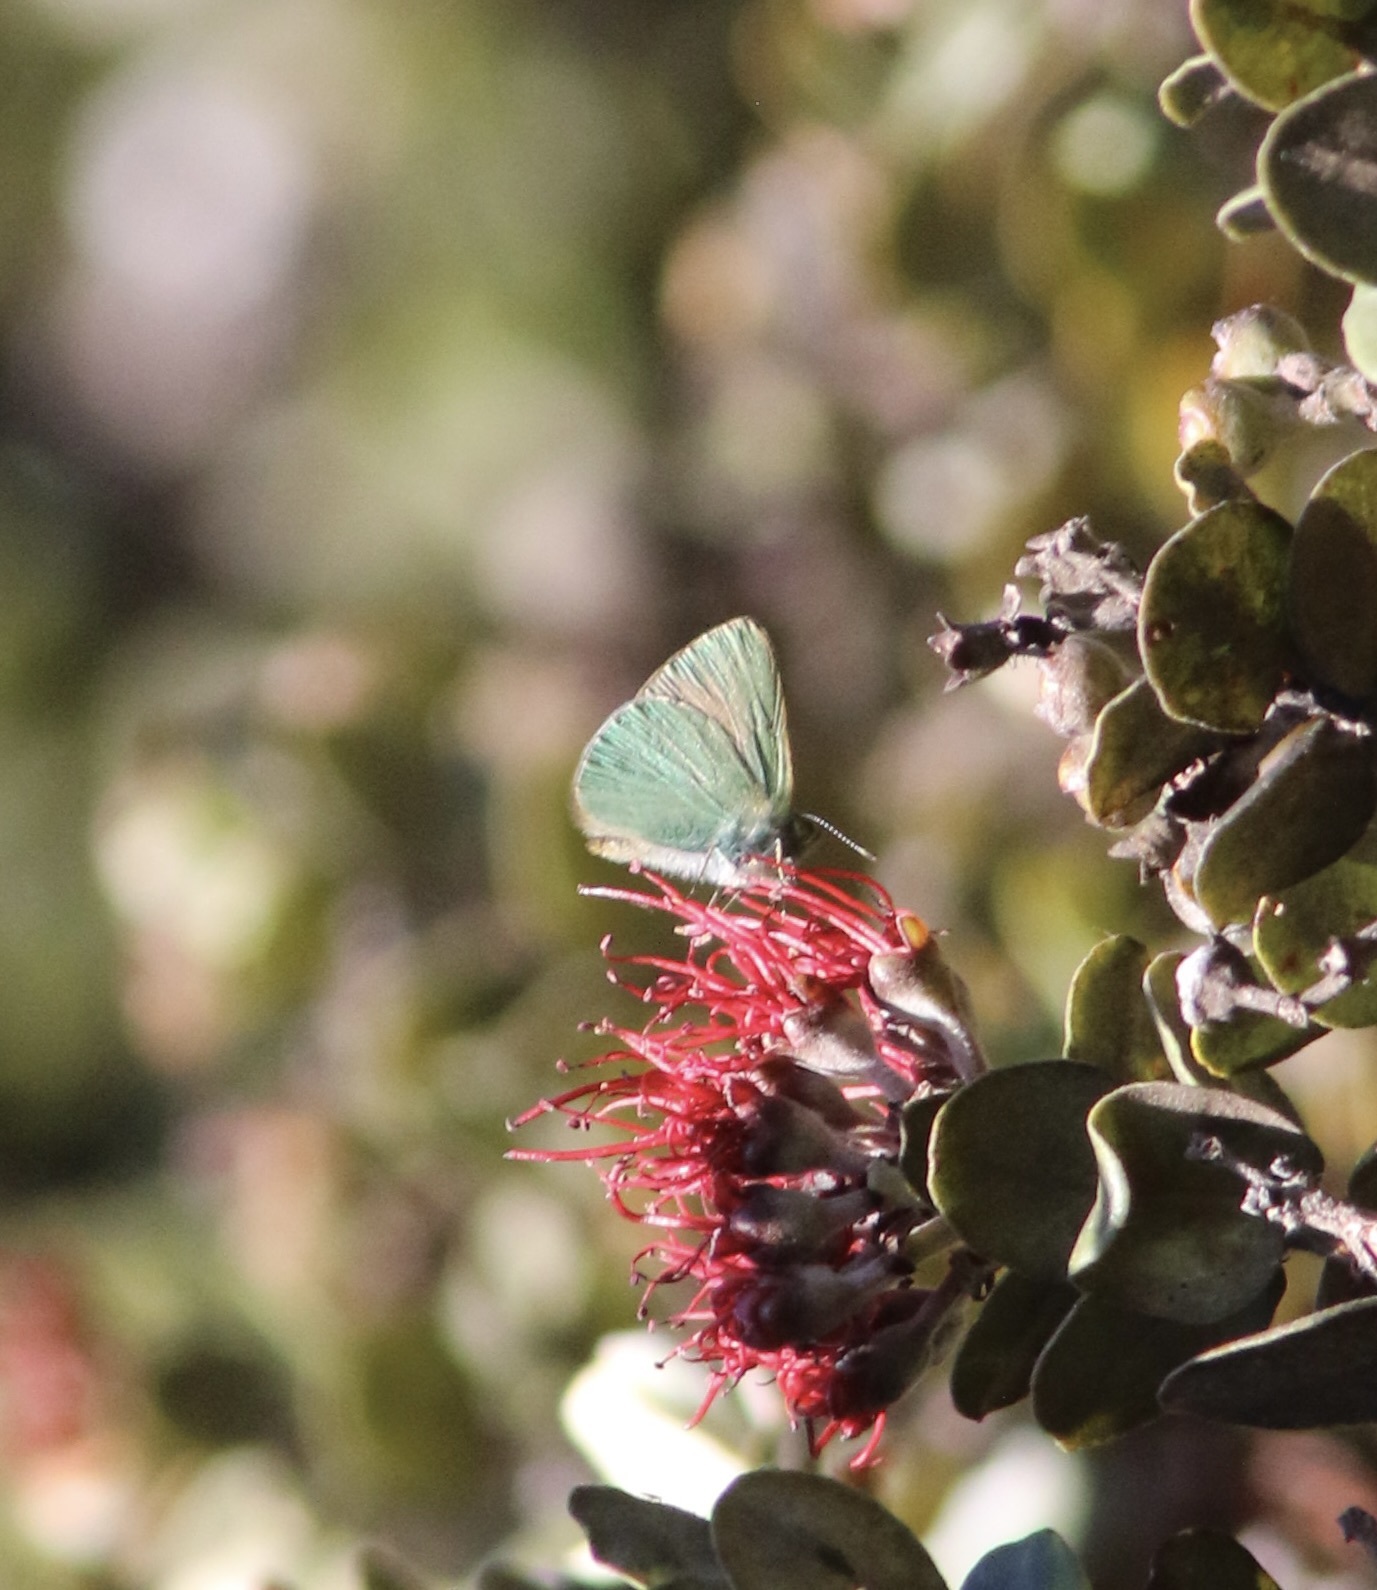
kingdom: Animalia
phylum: Arthropoda
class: Insecta
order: Lepidoptera
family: Lycaenidae
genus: Udara
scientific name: Udara blackburni
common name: Blackburn's blue
